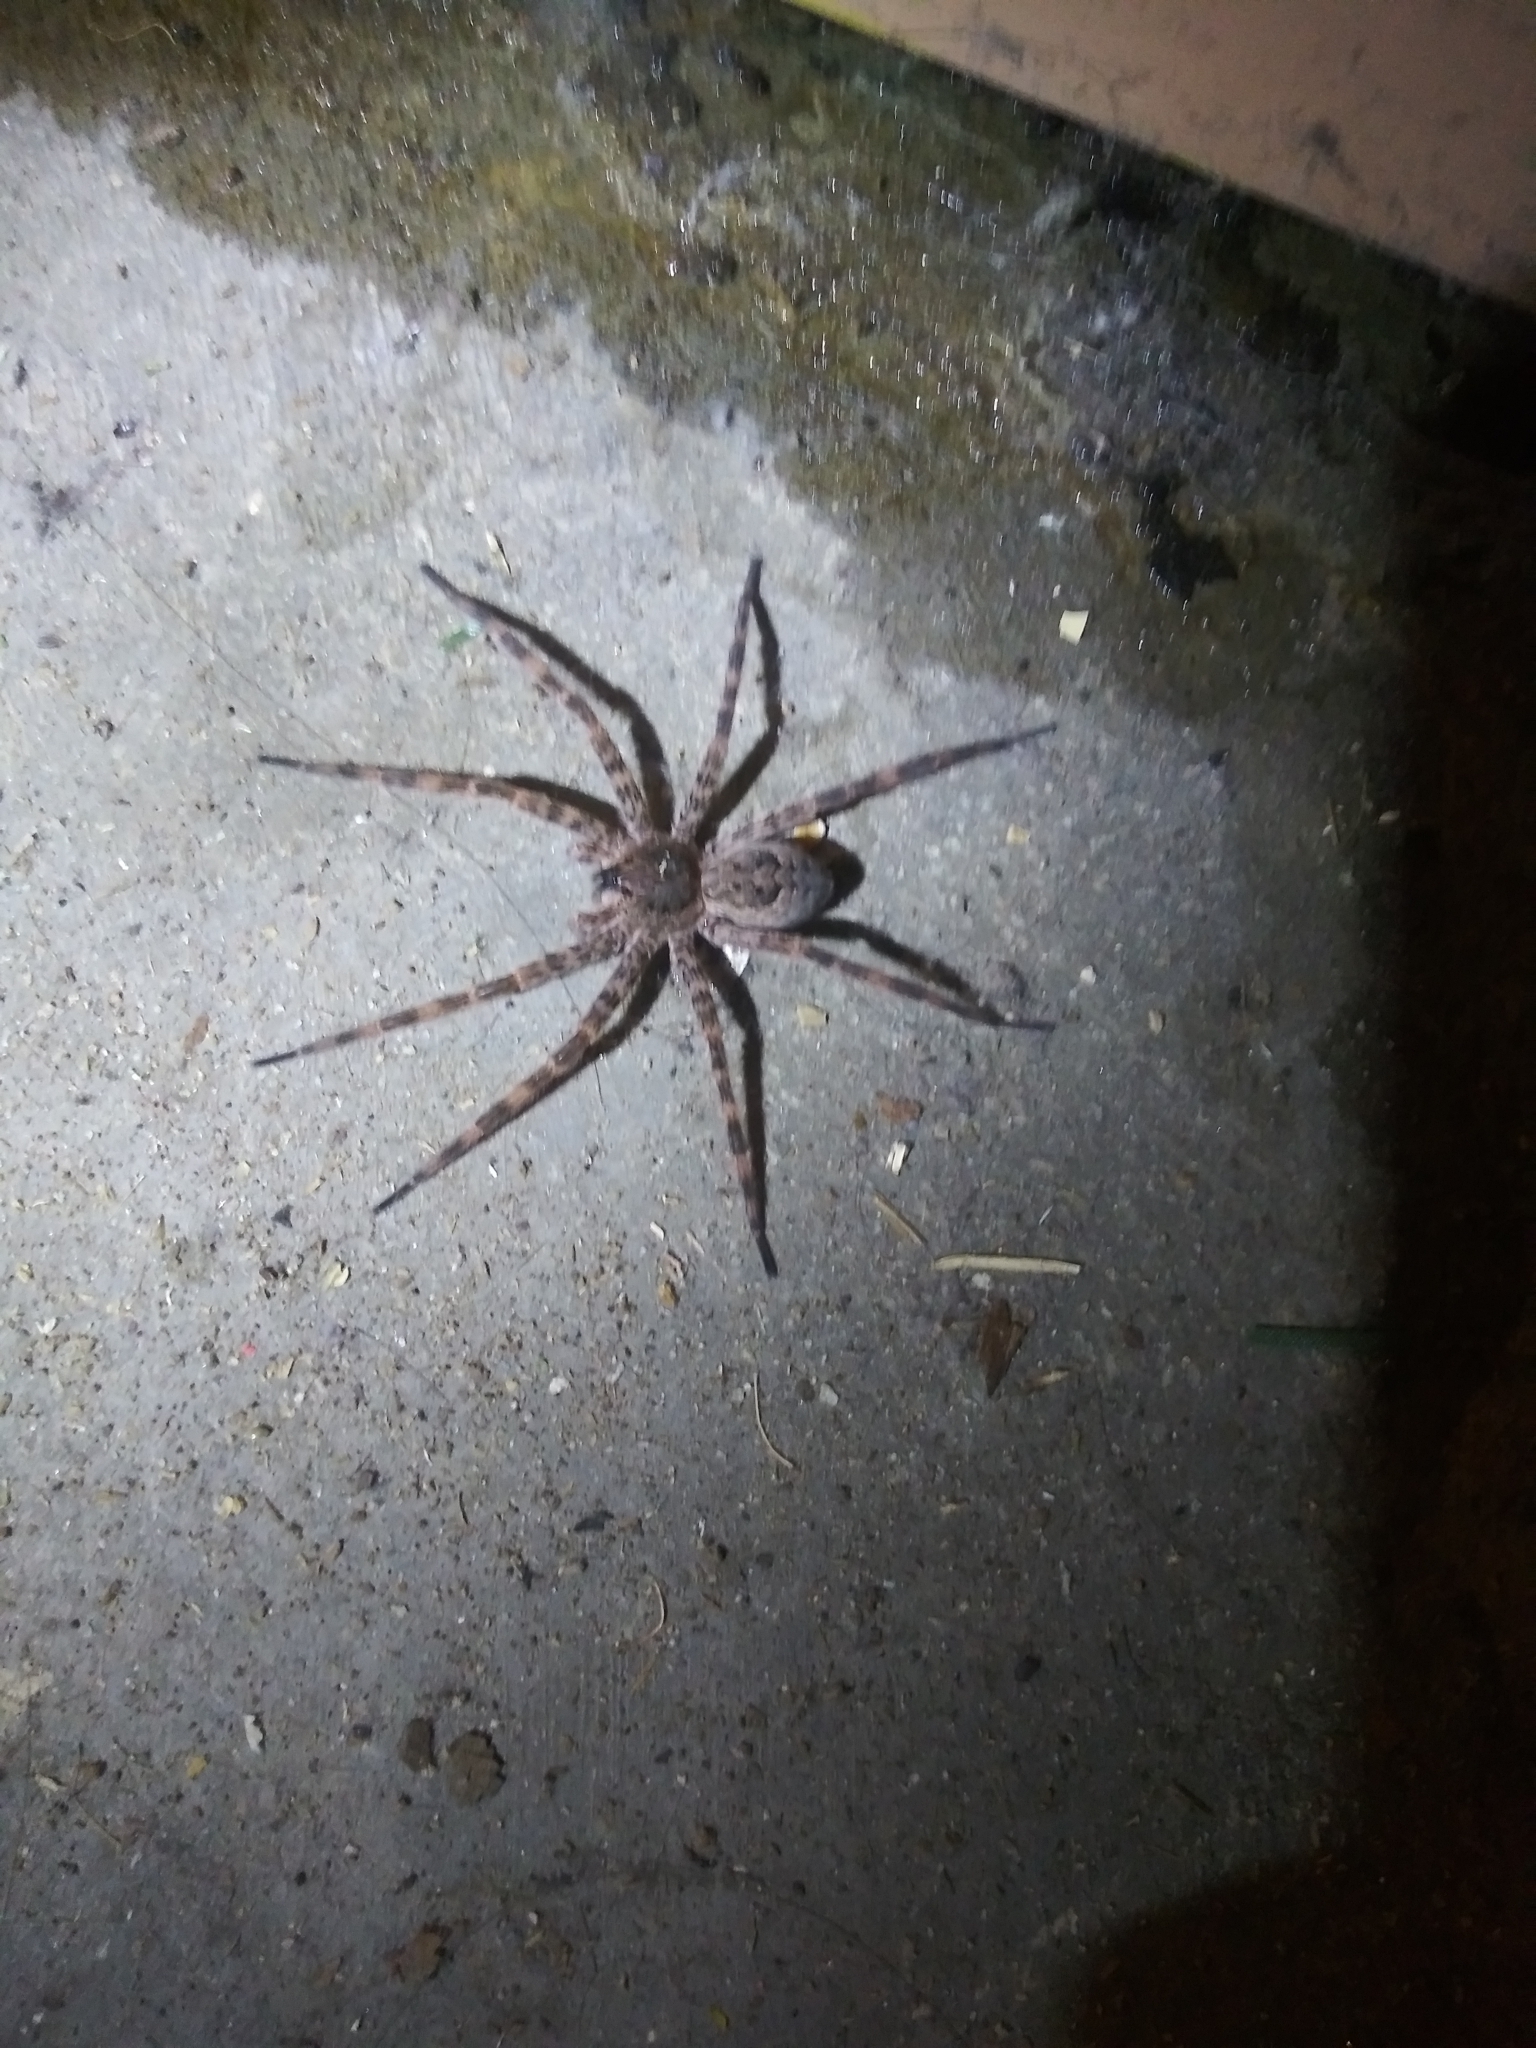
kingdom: Animalia
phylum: Arthropoda
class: Arachnida
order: Araneae
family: Pisauridae
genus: Dolomedes
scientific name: Dolomedes tenebrosus
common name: Dark fishing spider
